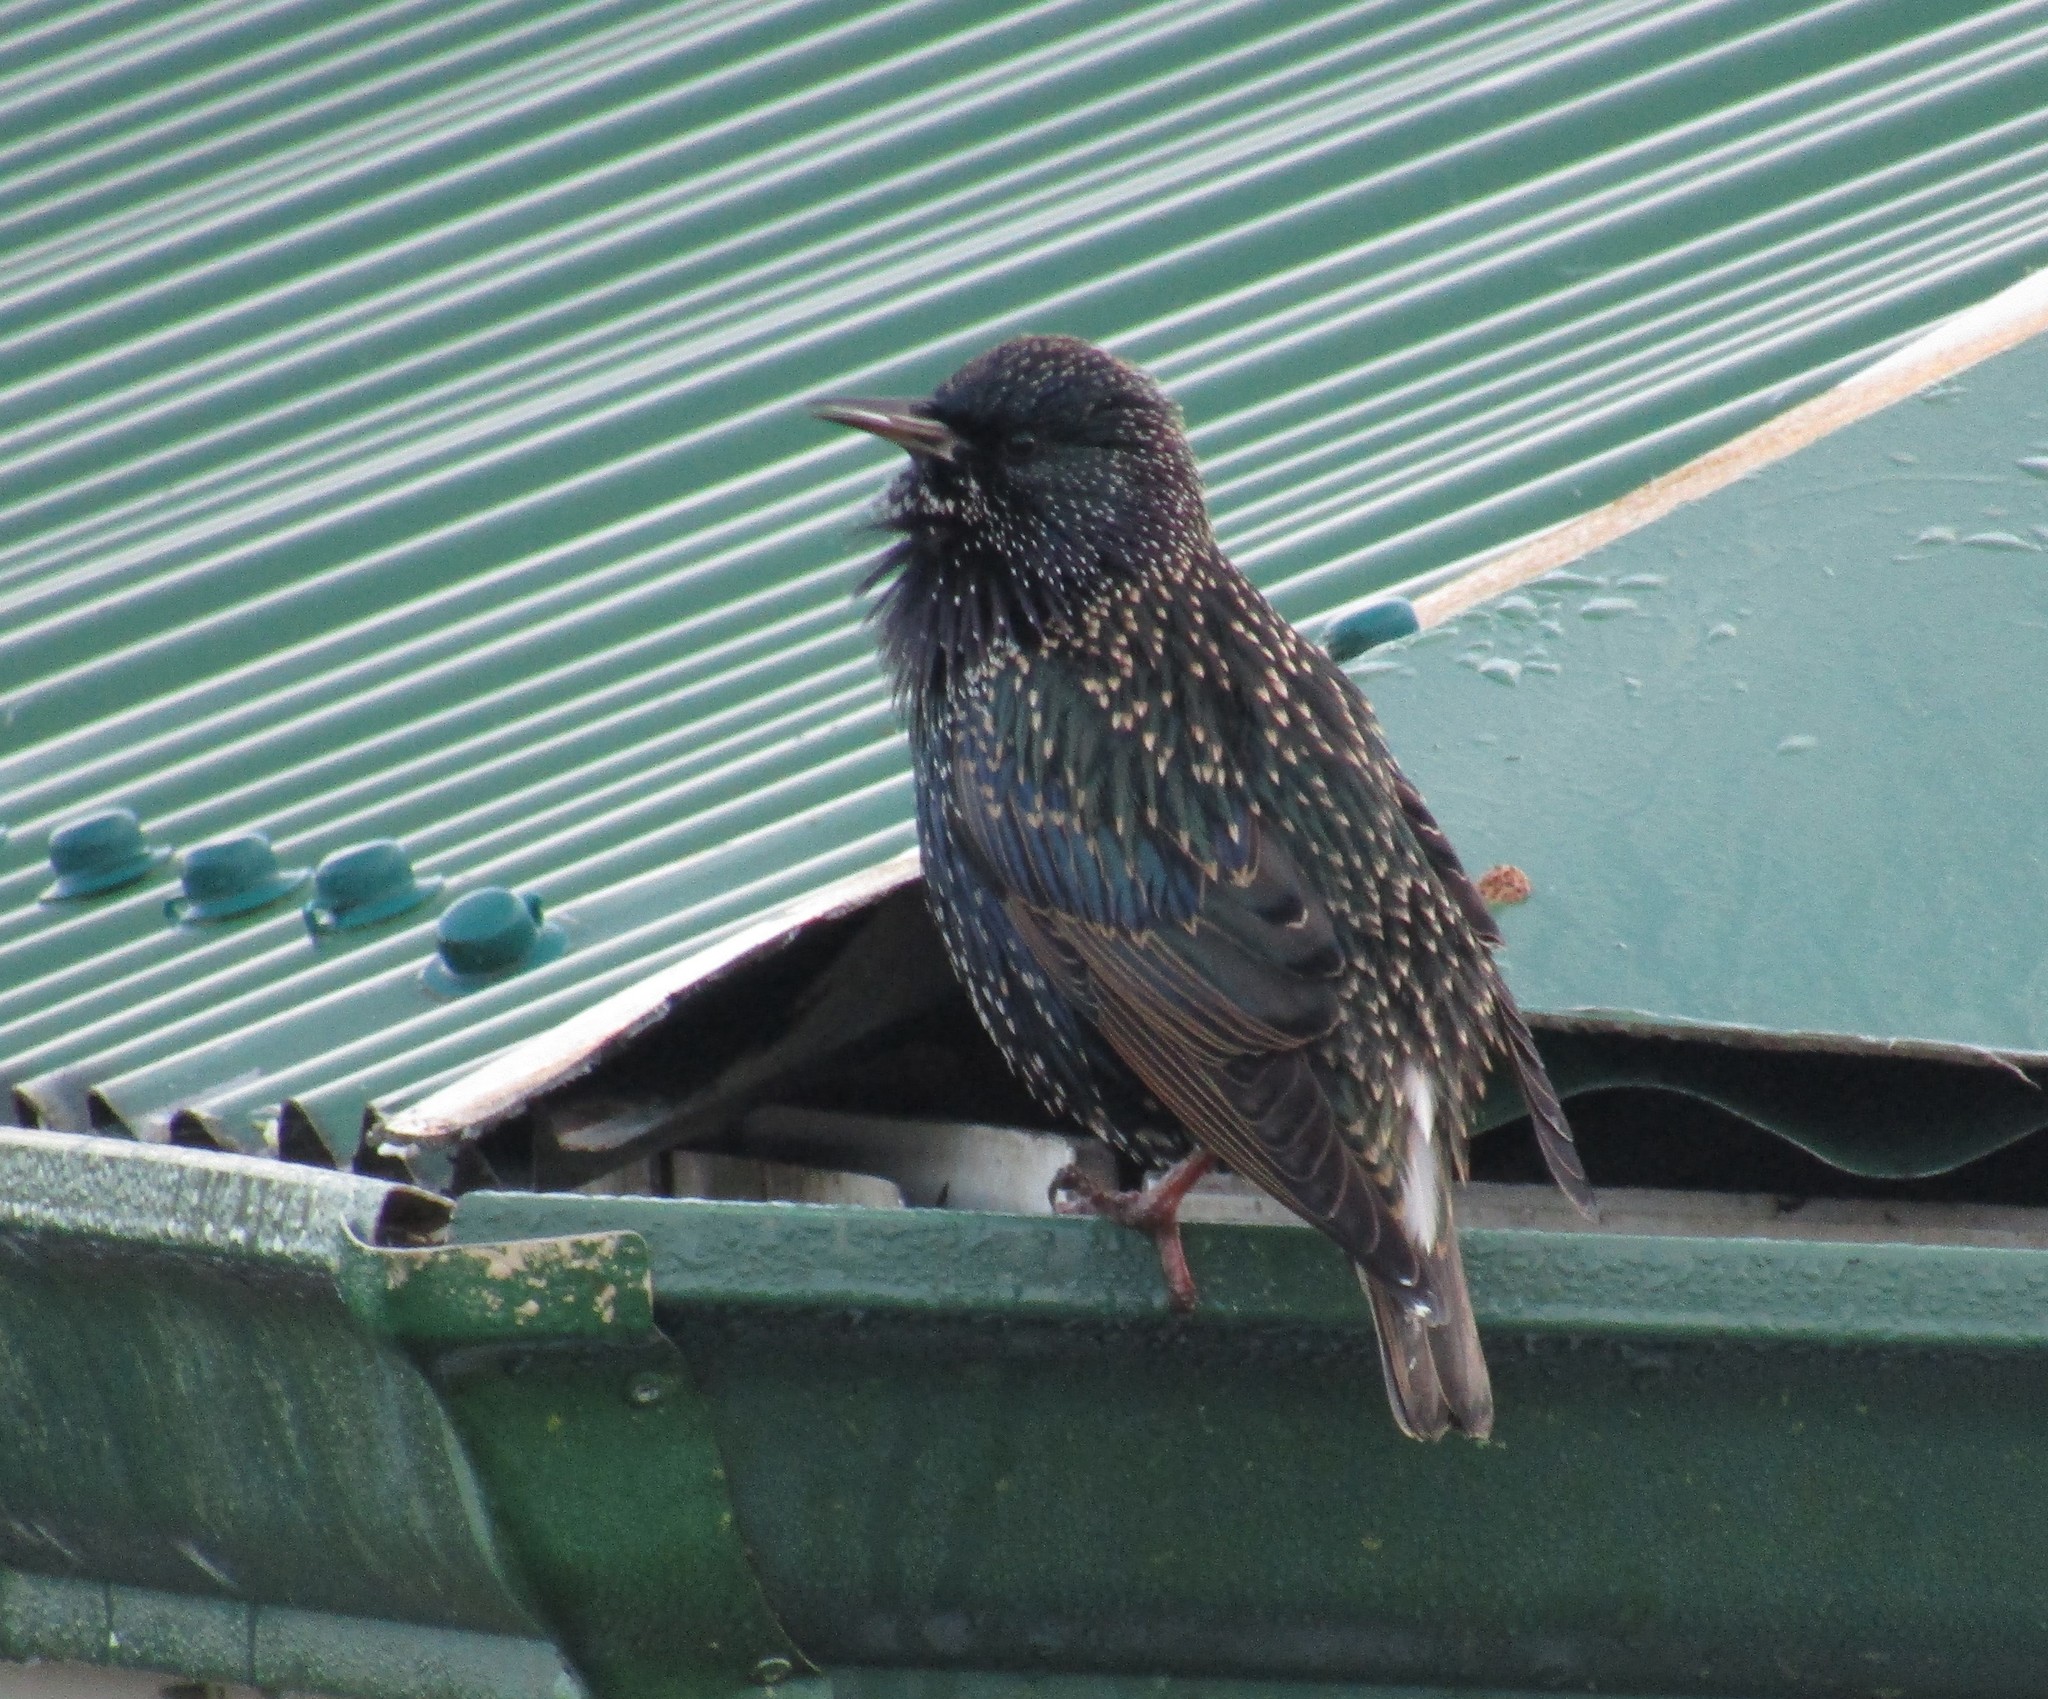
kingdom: Animalia
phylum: Chordata
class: Aves
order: Passeriformes
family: Sturnidae
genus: Sturnus
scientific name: Sturnus vulgaris
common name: Common starling
